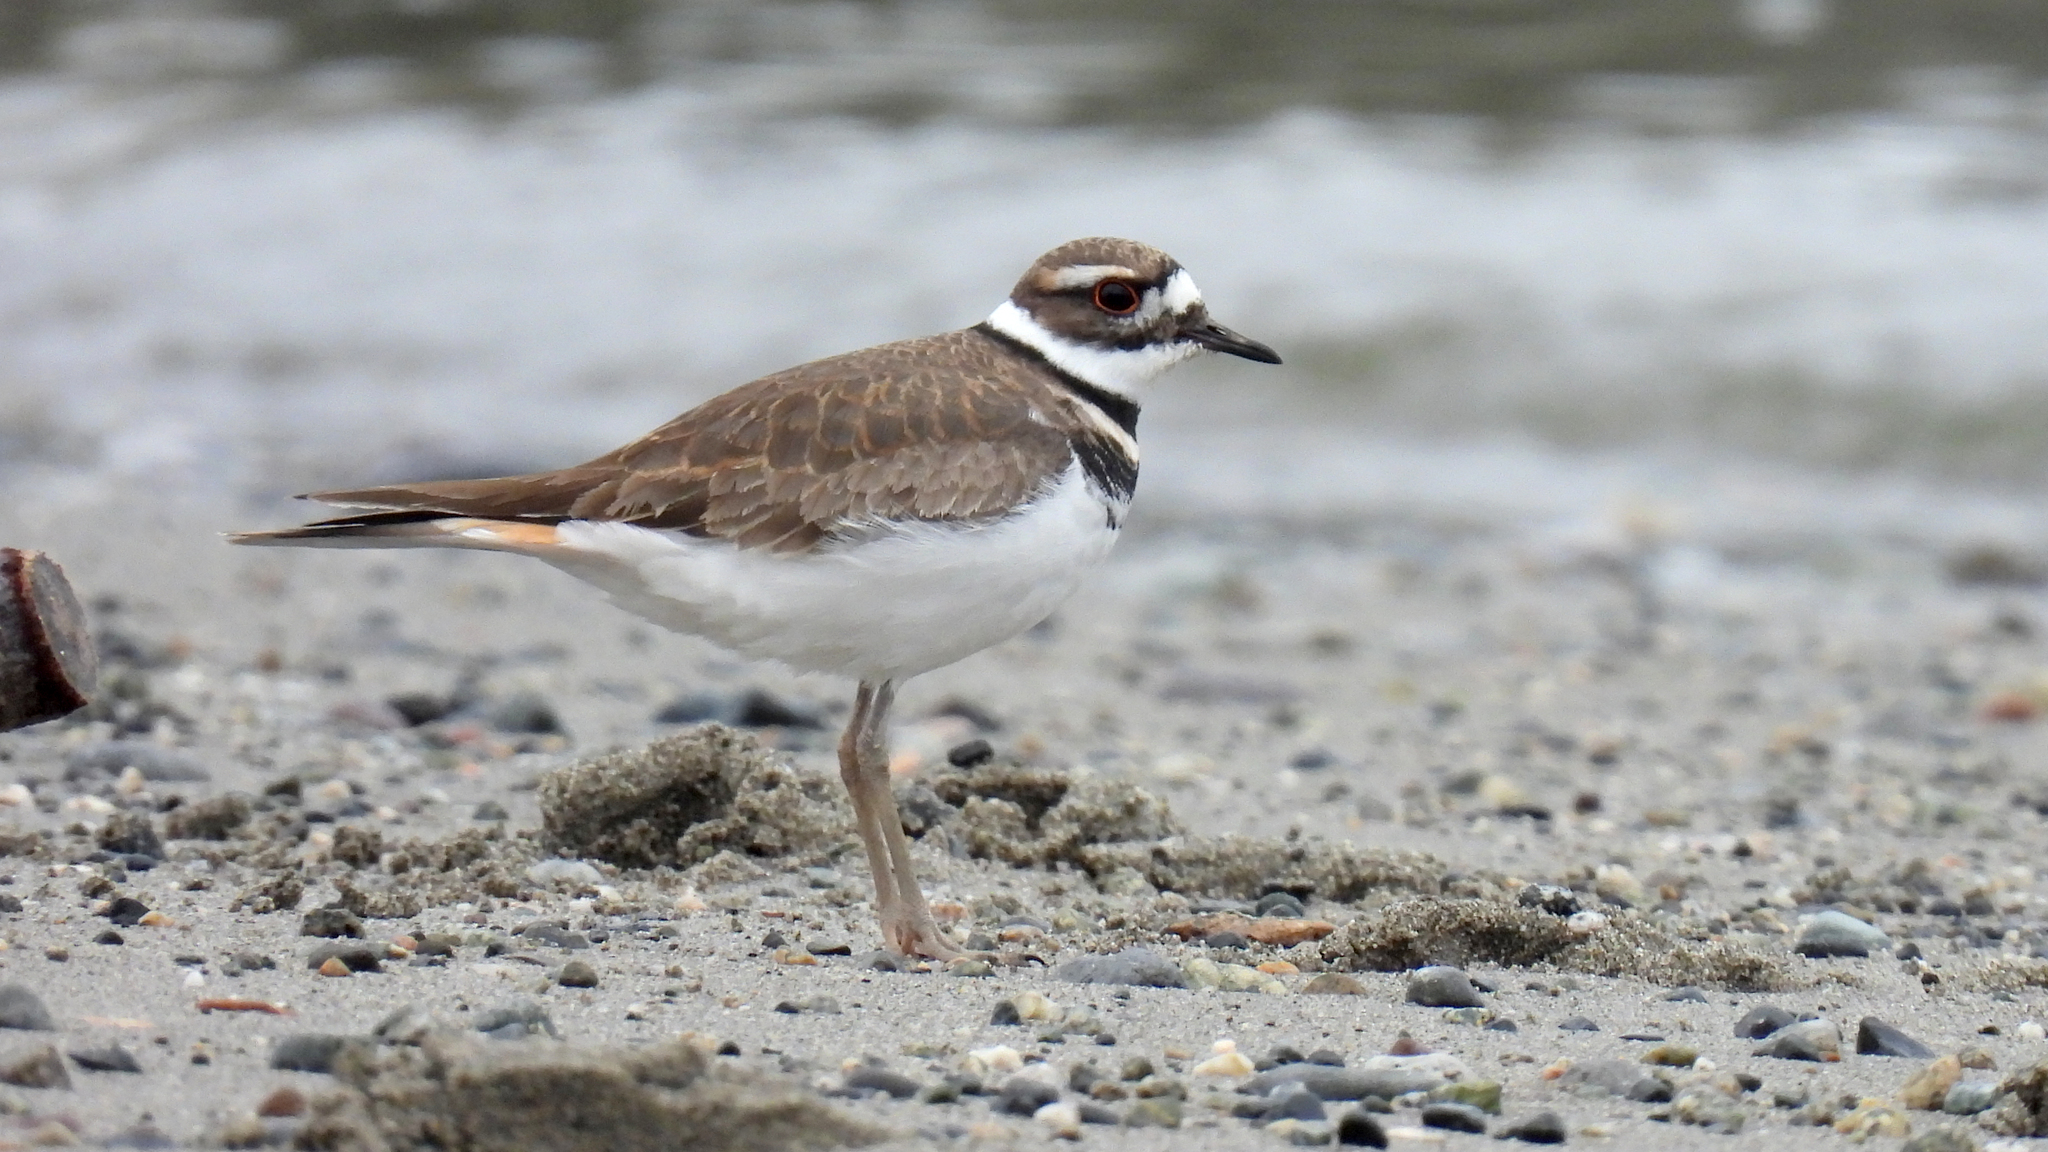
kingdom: Animalia
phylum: Chordata
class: Aves
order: Charadriiformes
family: Charadriidae
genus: Charadrius
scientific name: Charadrius vociferus
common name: Killdeer
